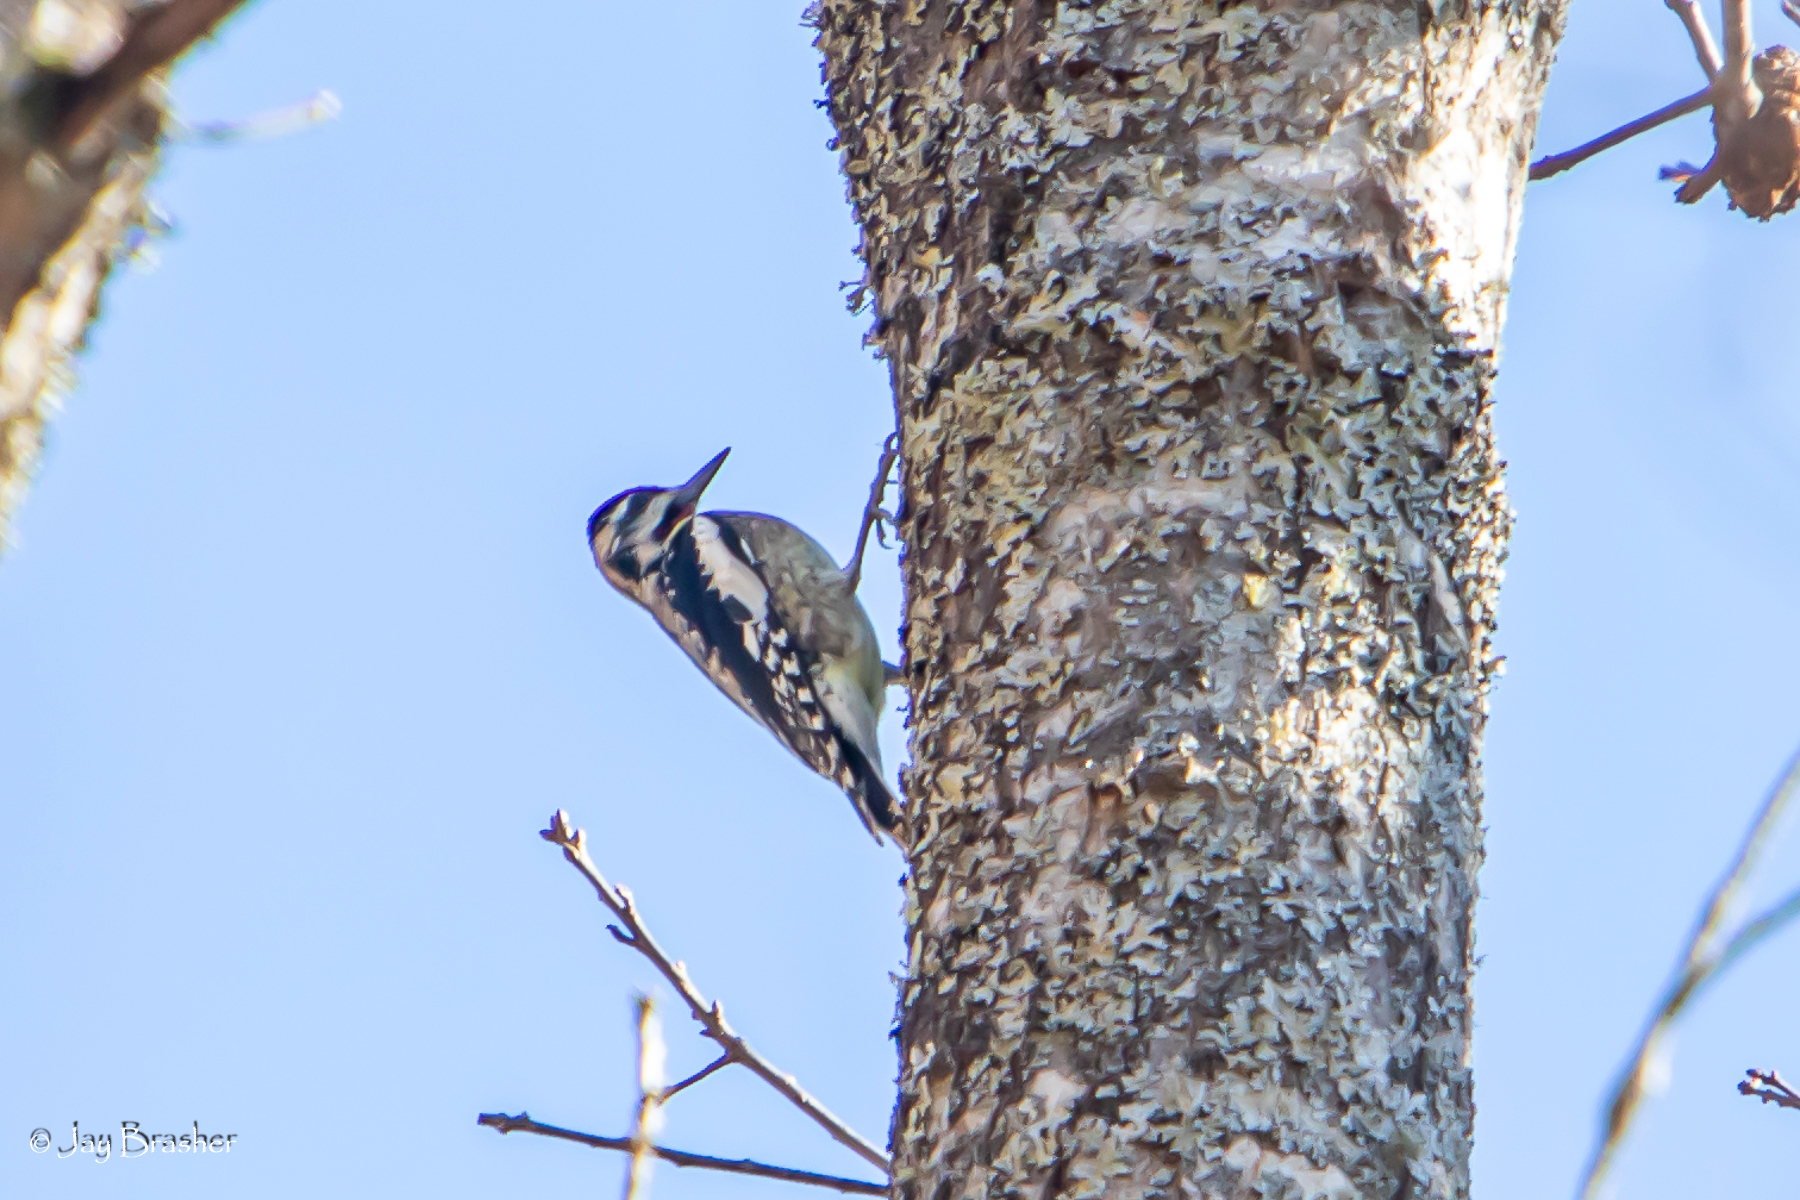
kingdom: Animalia
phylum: Chordata
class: Aves
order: Piciformes
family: Picidae
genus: Sphyrapicus
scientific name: Sphyrapicus varius
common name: Yellow-bellied sapsucker
